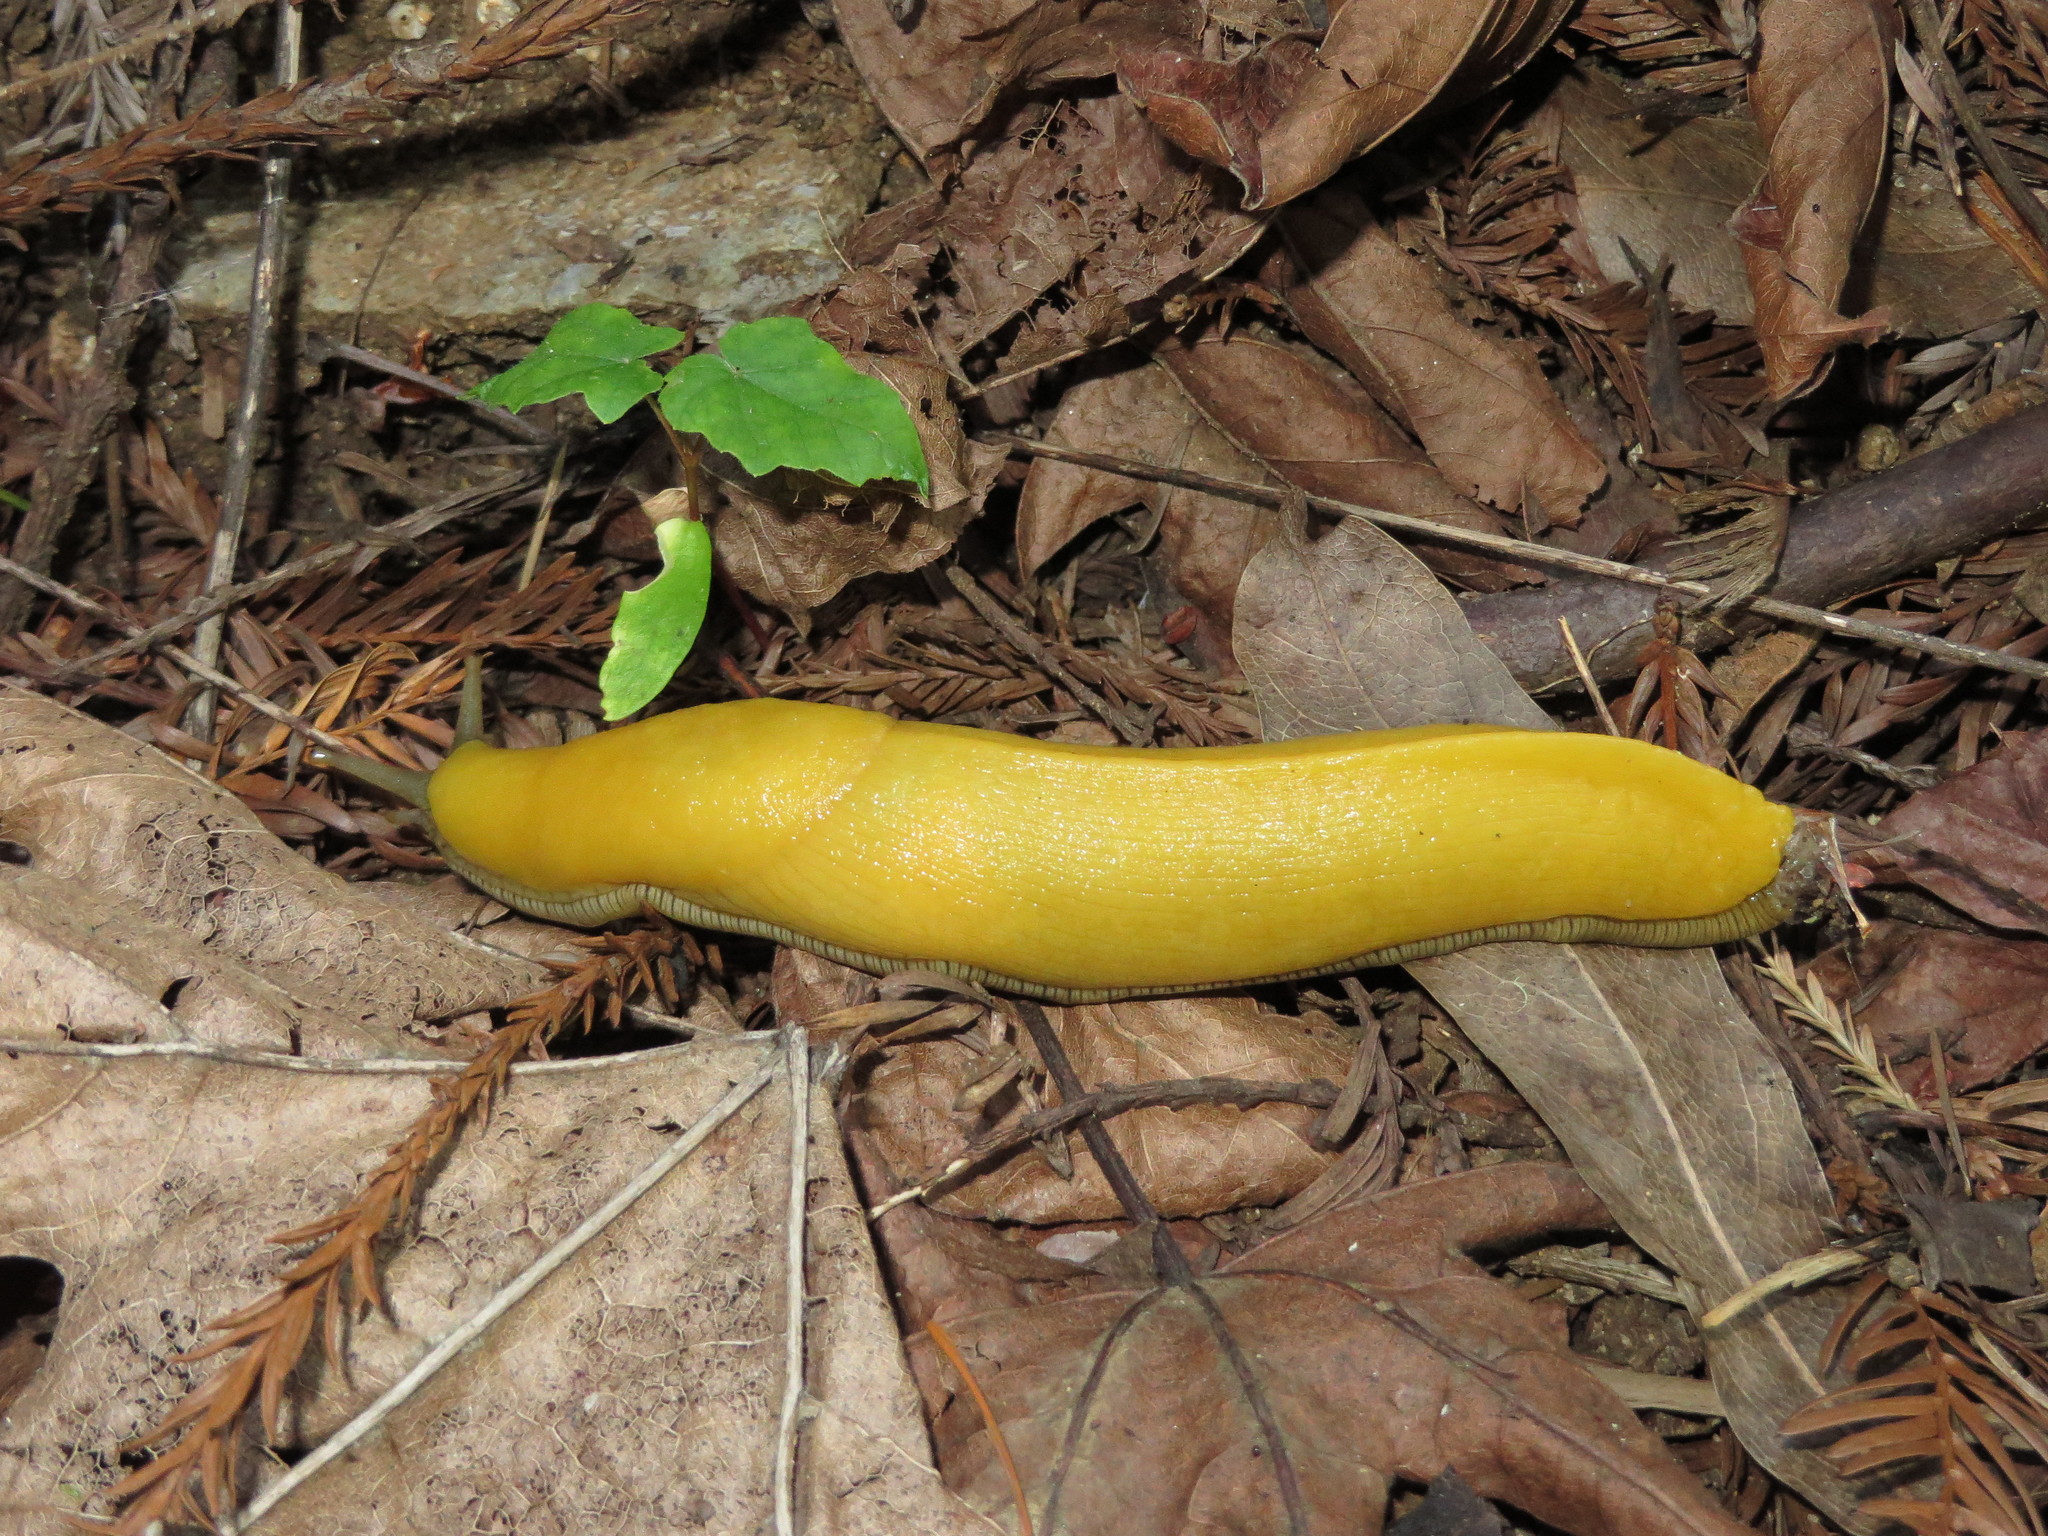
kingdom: Animalia
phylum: Mollusca
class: Gastropoda
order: Stylommatophora
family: Ariolimacidae
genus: Ariolimax
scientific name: Ariolimax dolichophallus
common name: Slender banana slug
